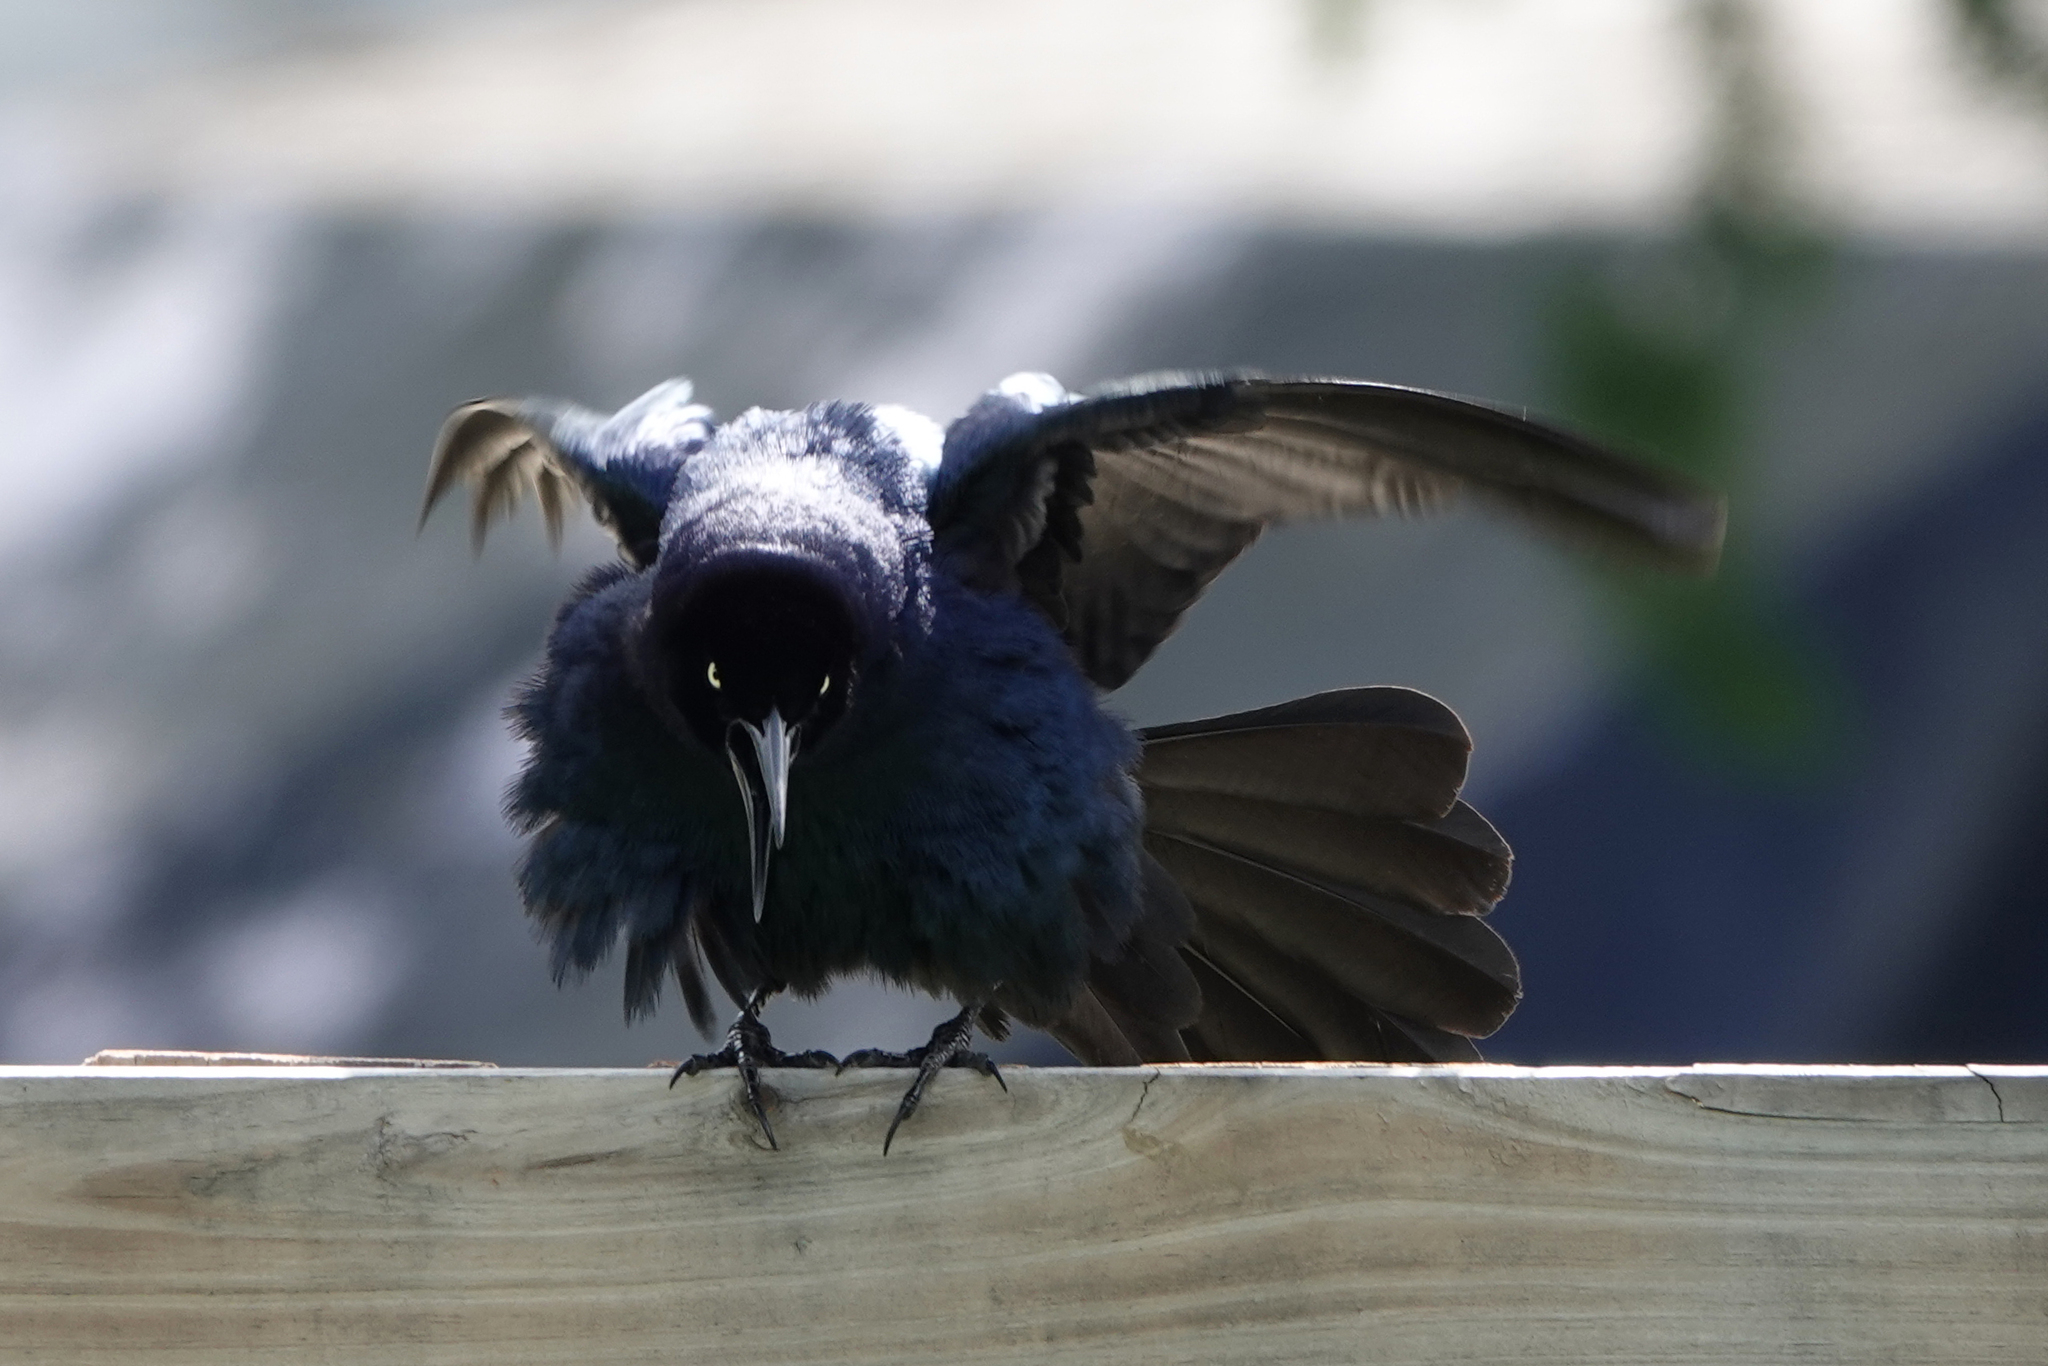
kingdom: Animalia
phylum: Chordata
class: Aves
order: Passeriformes
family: Icteridae
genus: Quiscalus
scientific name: Quiscalus mexicanus
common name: Great-tailed grackle
